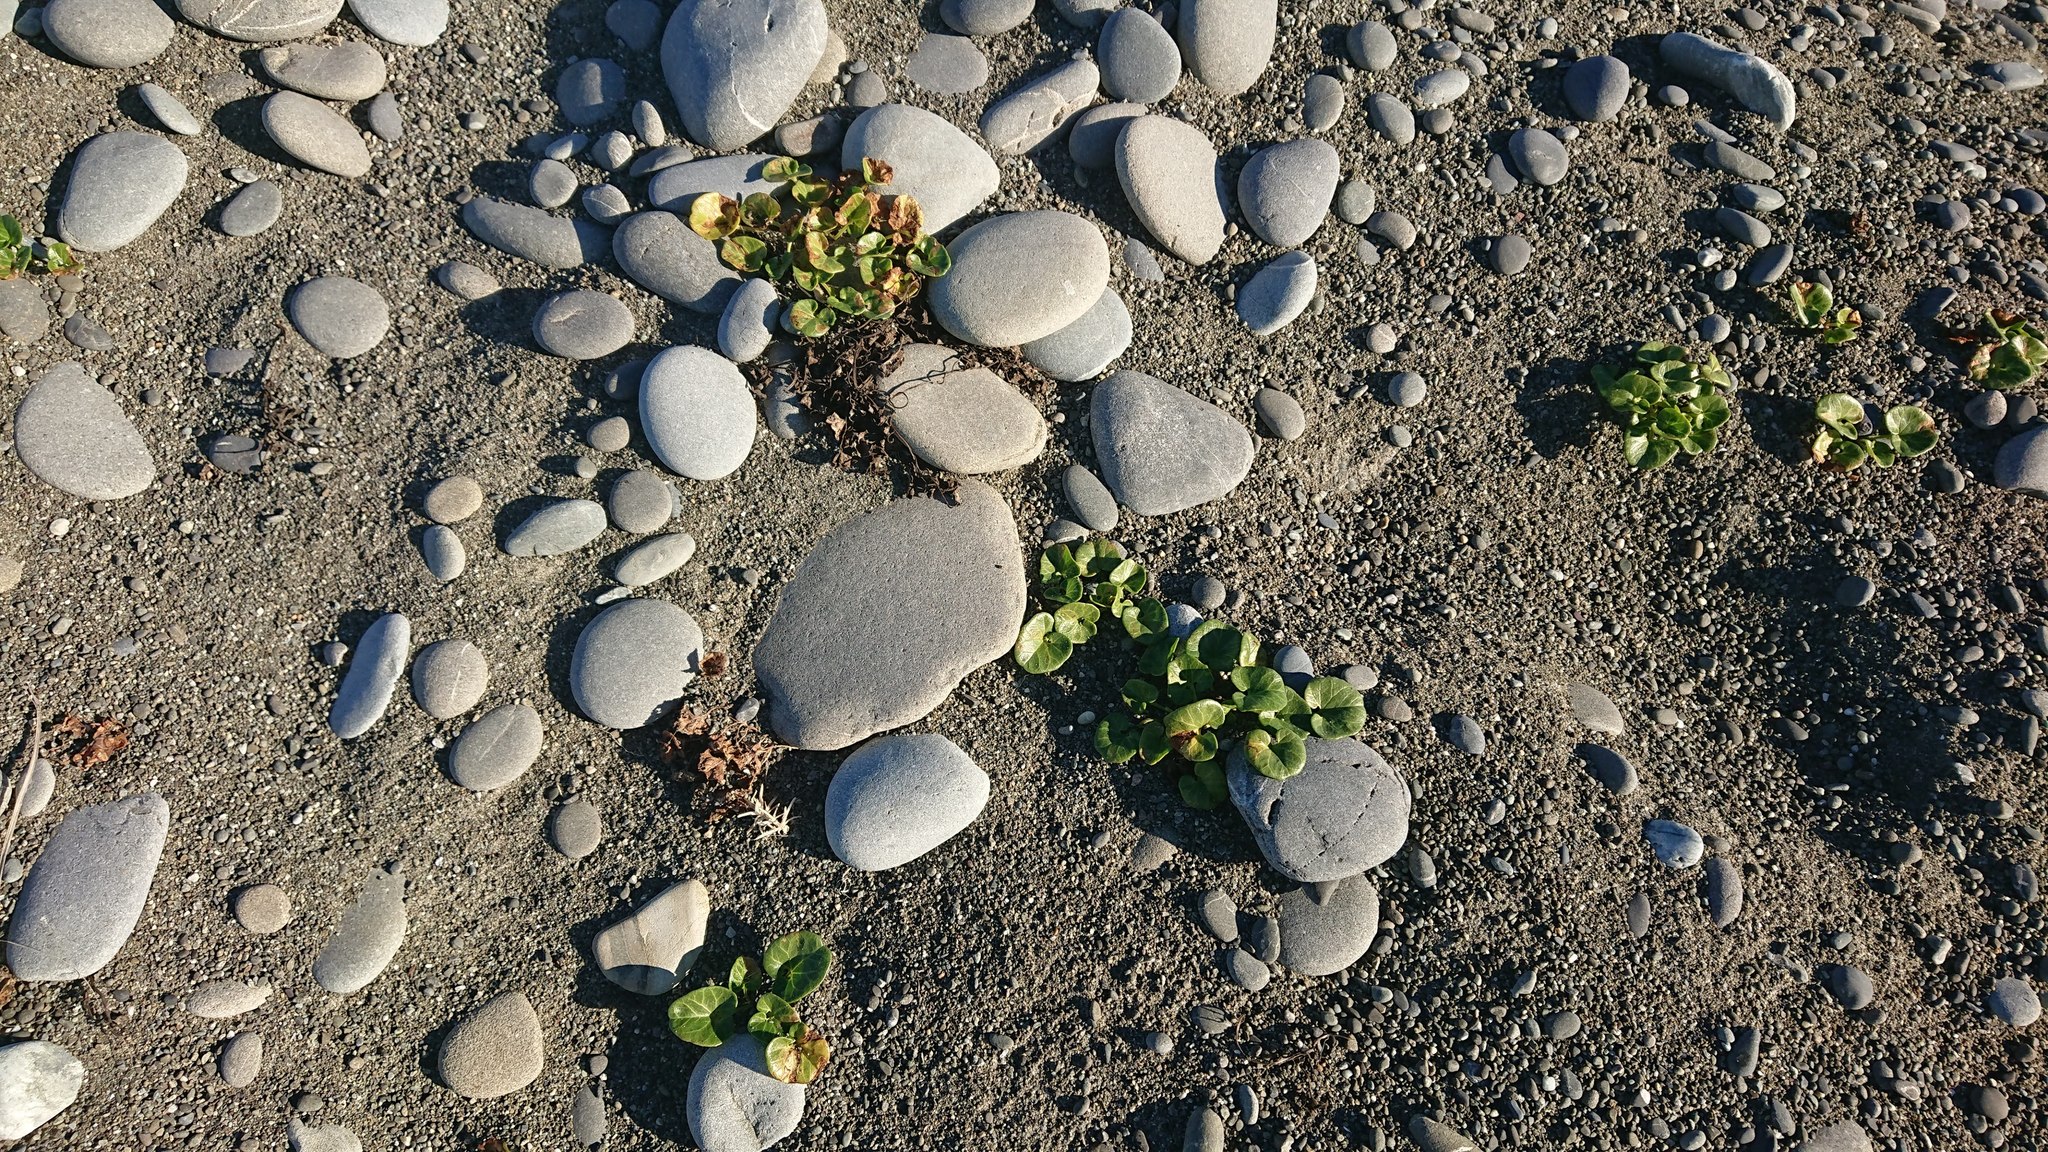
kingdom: Plantae
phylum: Tracheophyta
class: Magnoliopsida
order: Solanales
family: Convolvulaceae
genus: Calystegia
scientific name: Calystegia soldanella
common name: Sea bindweed
